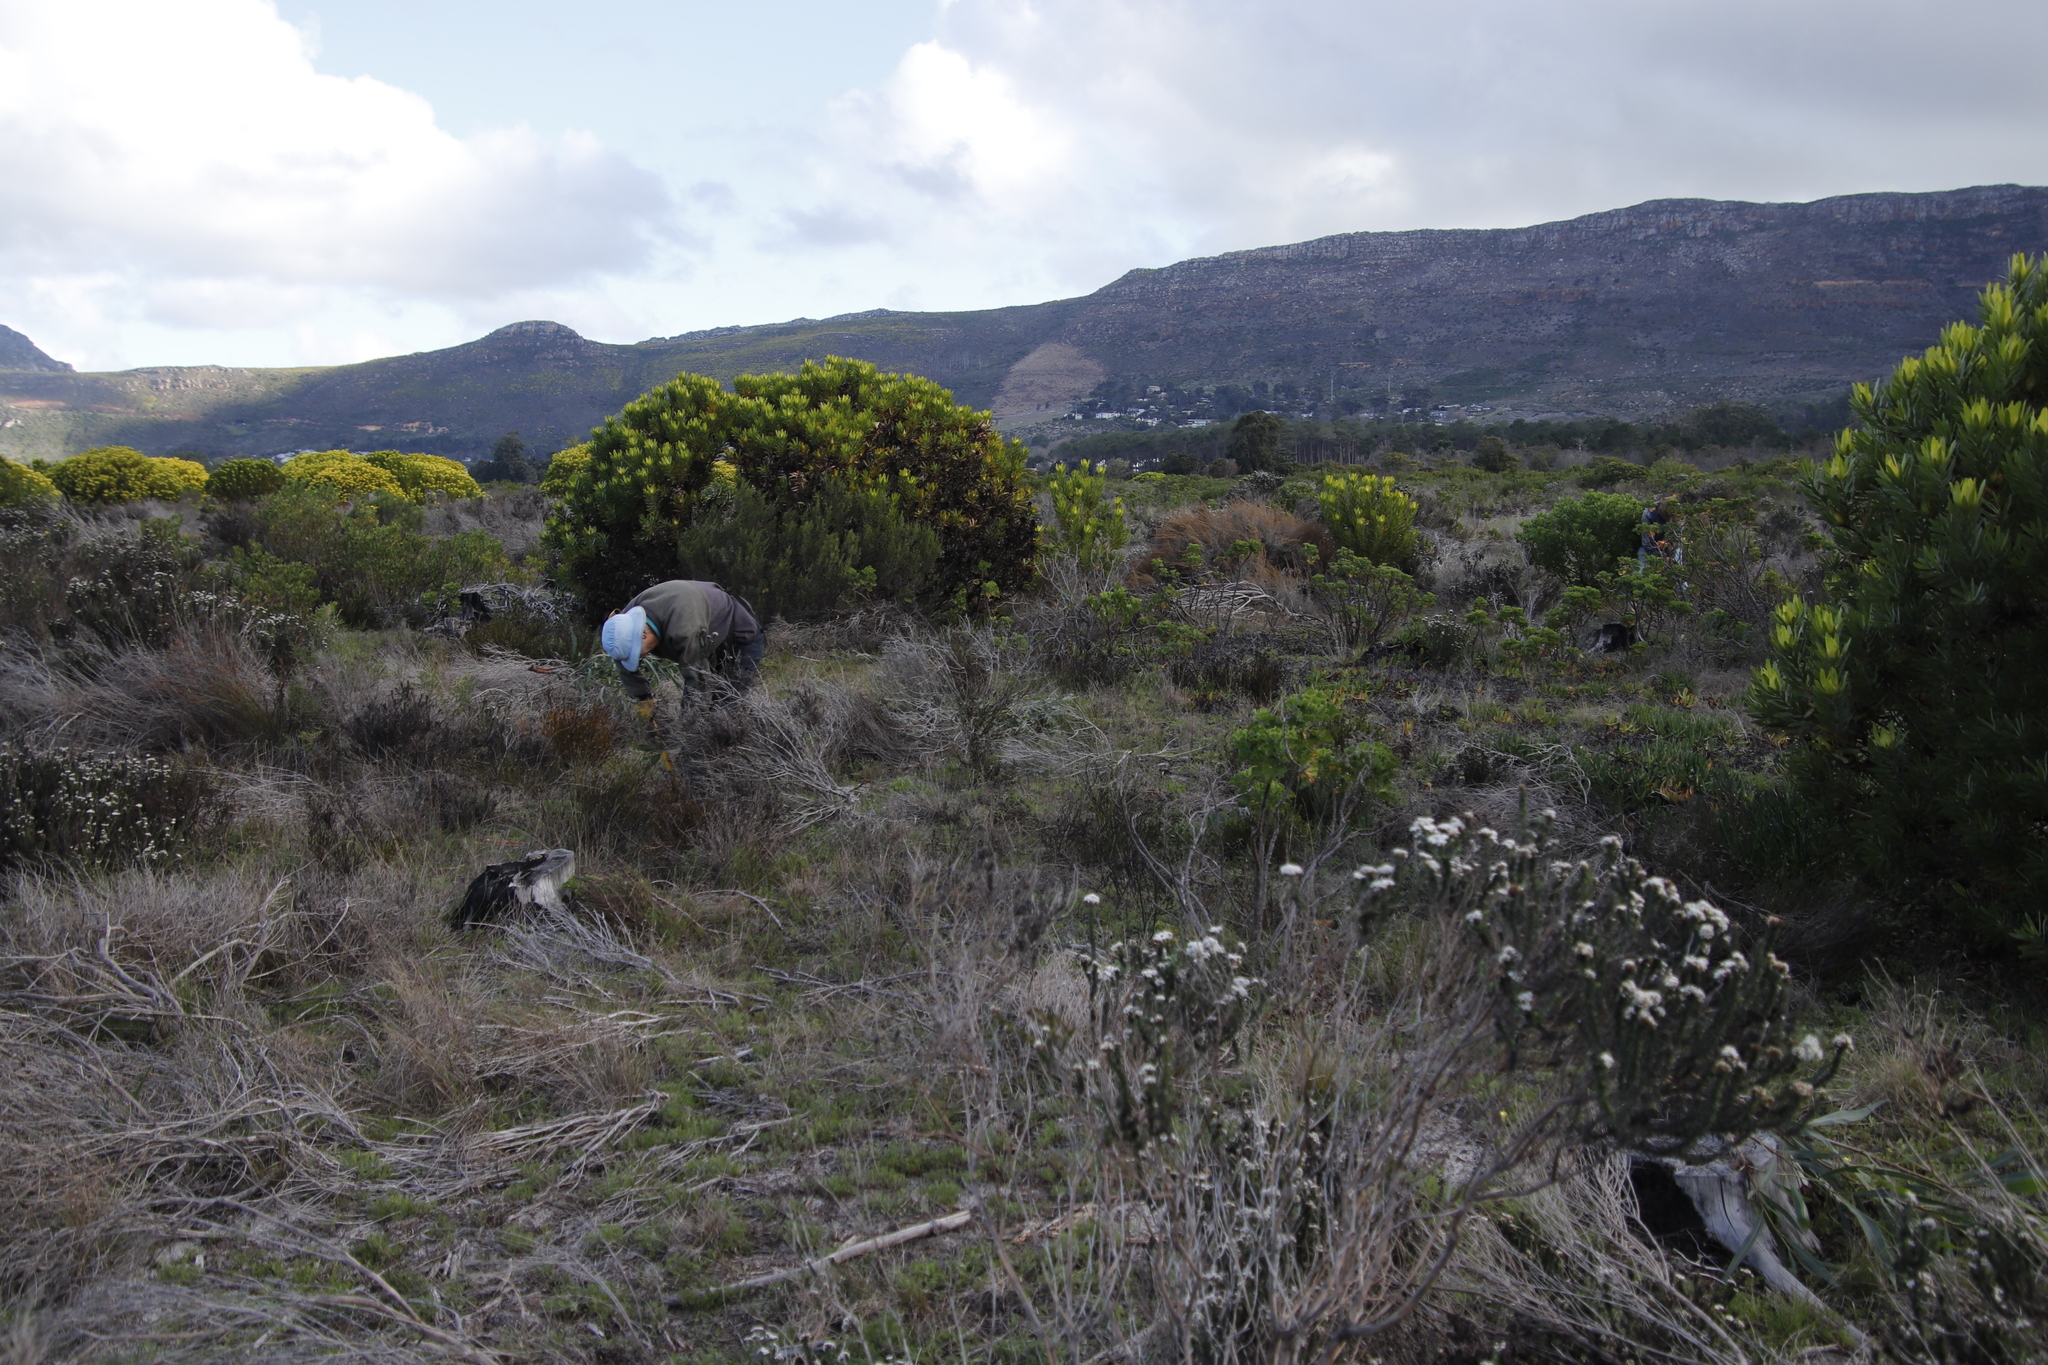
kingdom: Plantae
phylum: Tracheophyta
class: Magnoliopsida
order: Asterales
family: Asteraceae
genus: Metalasia
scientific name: Metalasia densa
